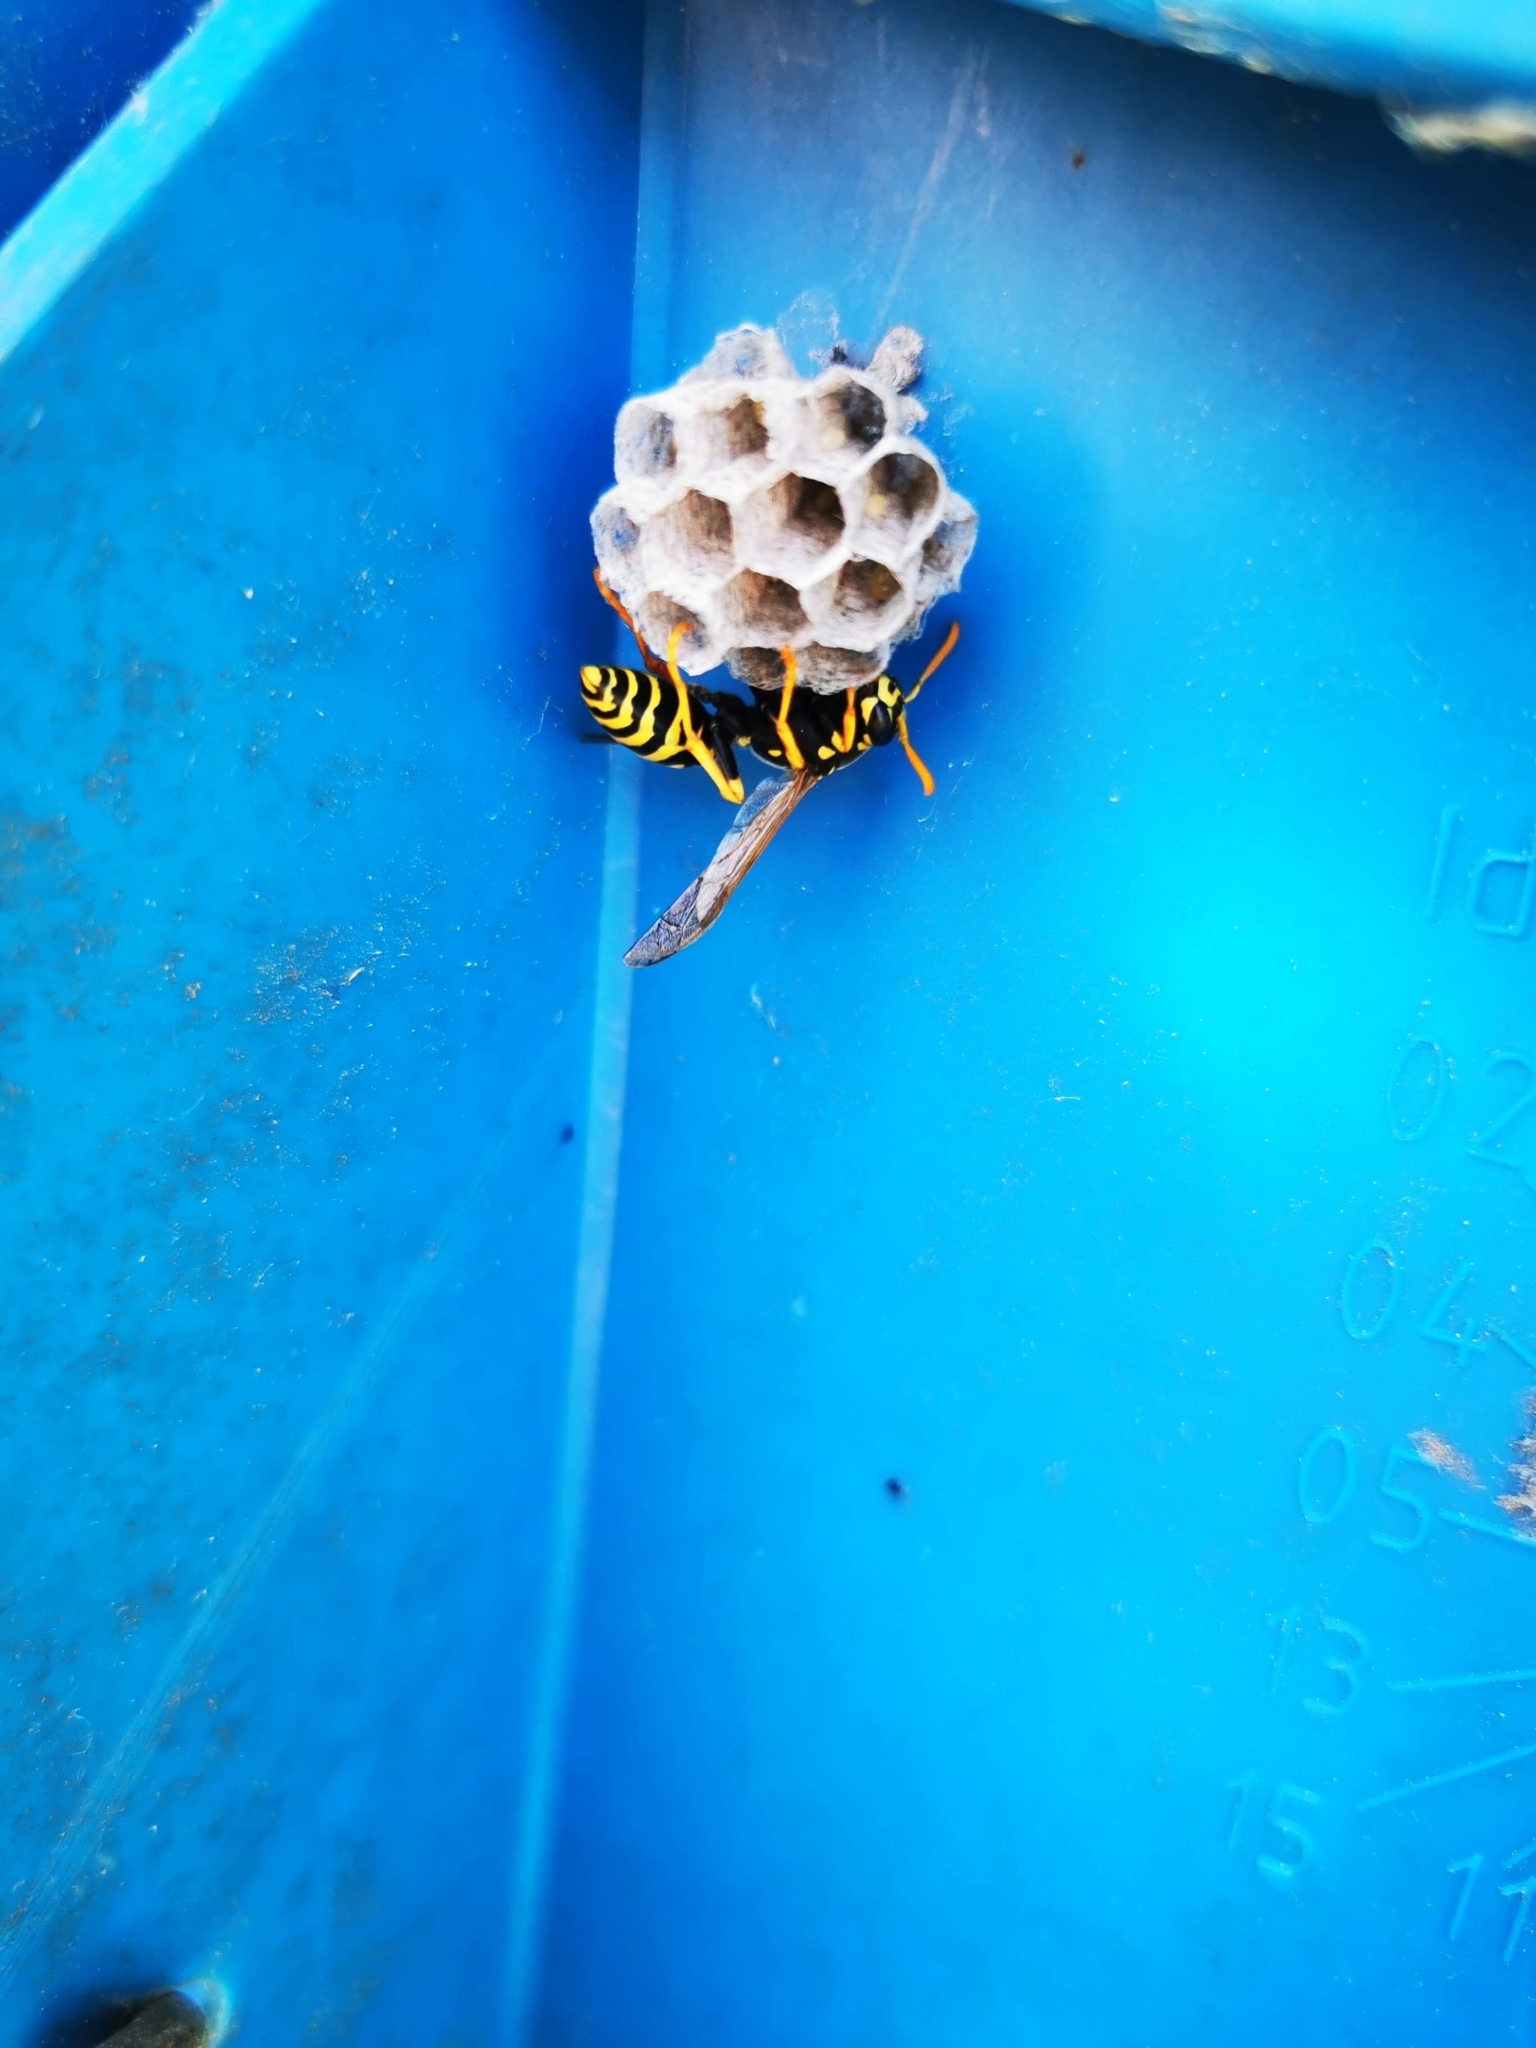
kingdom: Animalia
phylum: Arthropoda
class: Insecta
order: Hymenoptera
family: Eumenidae
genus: Polistes
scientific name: Polistes dominula
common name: Paper wasp
